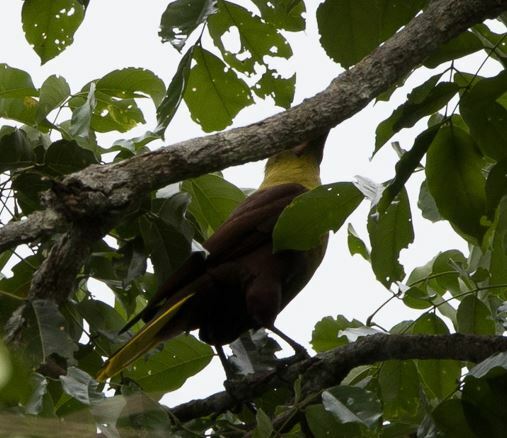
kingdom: Animalia
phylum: Chordata
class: Aves
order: Passeriformes
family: Icteridae
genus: Psarocolius
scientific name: Psarocolius bifasciatus
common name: Olive oropendola
